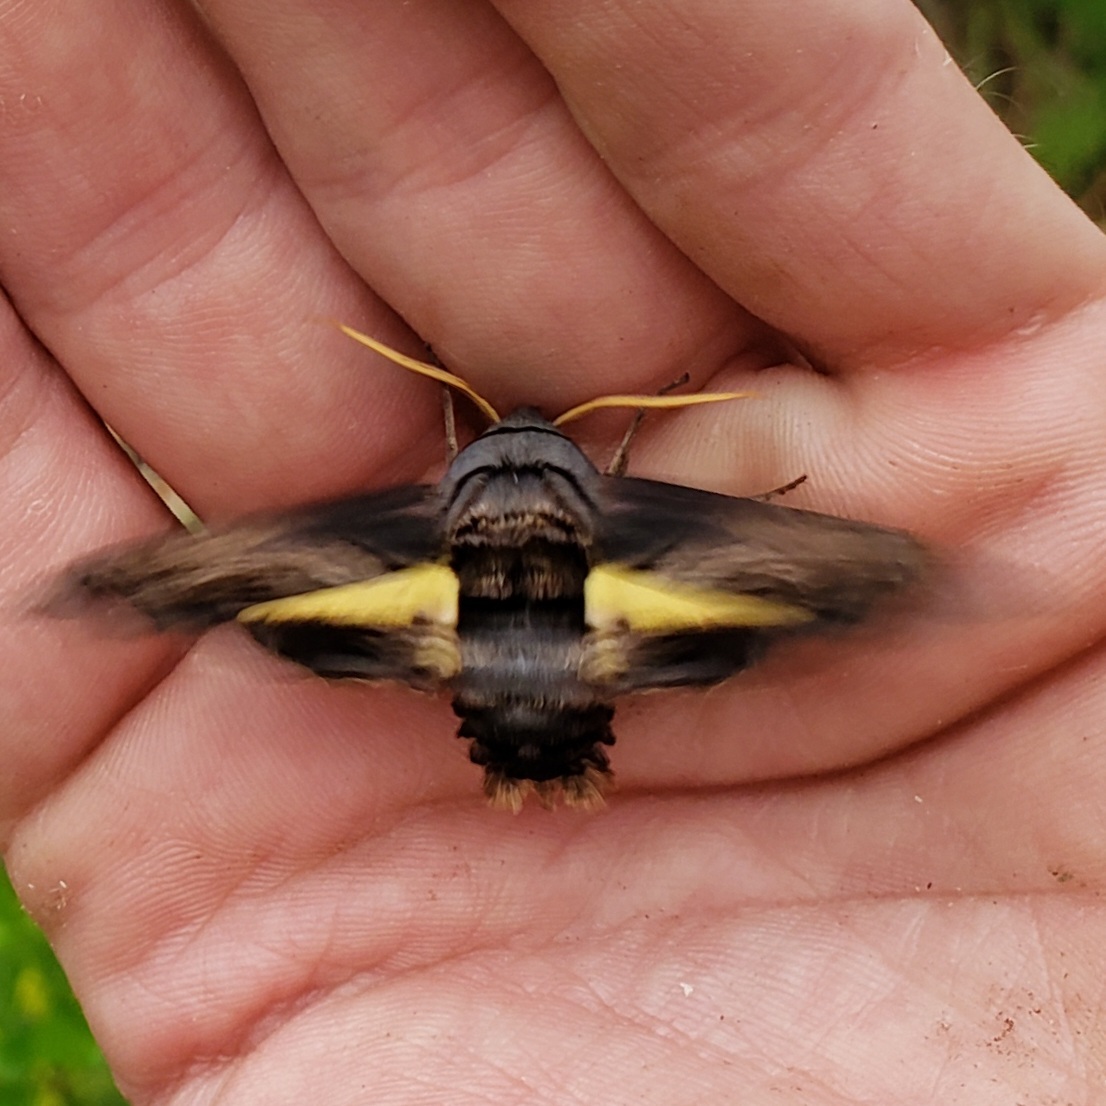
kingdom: Animalia
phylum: Arthropoda
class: Insecta
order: Lepidoptera
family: Sphingidae
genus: Sphecodina
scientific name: Sphecodina abbottii
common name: Abbott's sphinx
